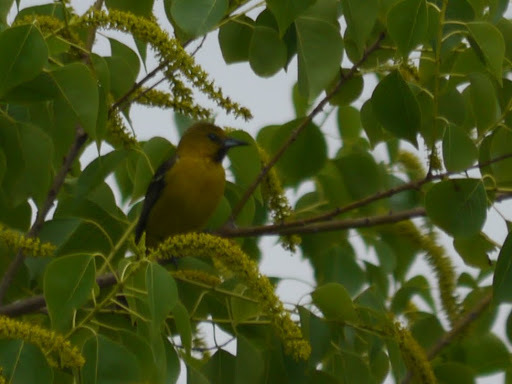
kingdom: Animalia
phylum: Chordata
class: Aves
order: Passeriformes
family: Icteridae
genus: Icterus
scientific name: Icterus spurius
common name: Orchard oriole
